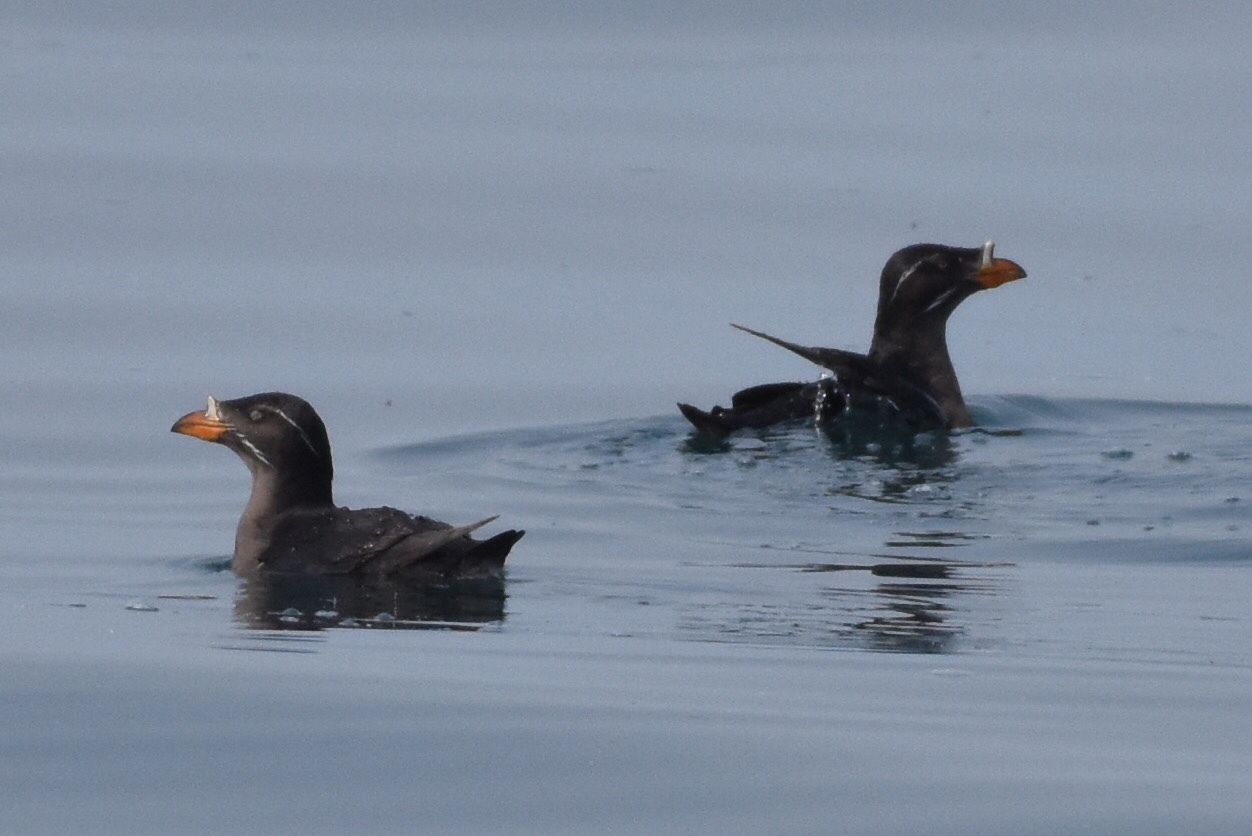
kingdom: Animalia
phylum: Chordata
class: Aves
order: Charadriiformes
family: Alcidae
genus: Cerorhinca
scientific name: Cerorhinca monocerata
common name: Rhinoceros auklet
